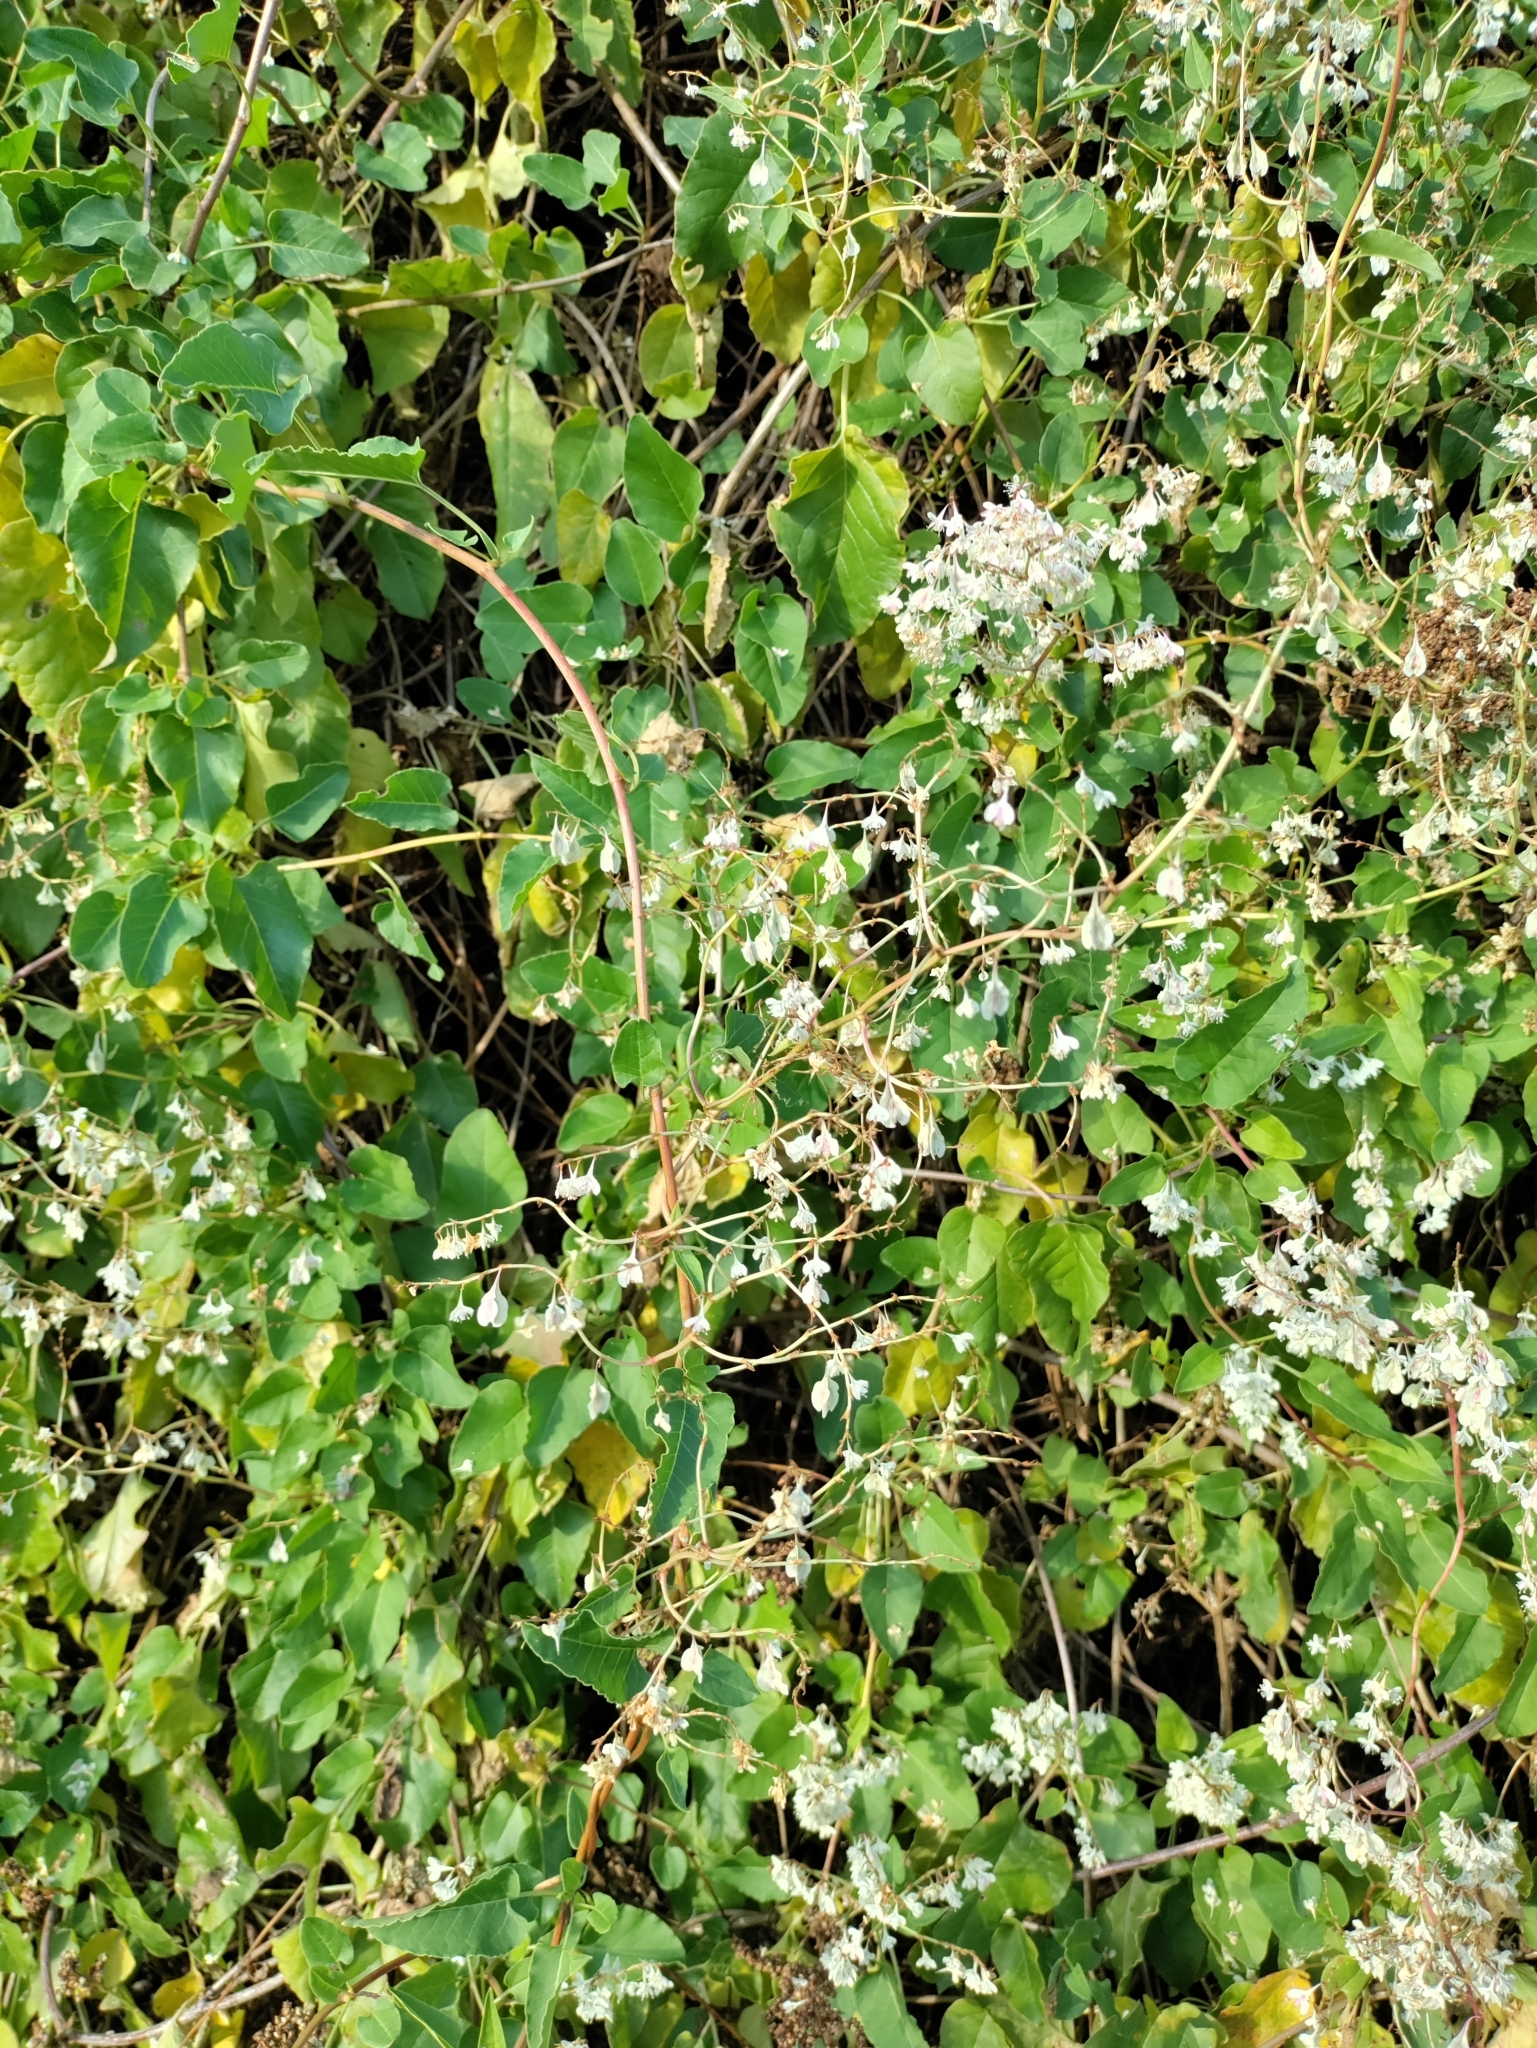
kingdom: Plantae
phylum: Tracheophyta
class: Magnoliopsida
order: Caryophyllales
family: Polygonaceae
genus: Fallopia
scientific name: Fallopia baldschuanica
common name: Russian-vine
